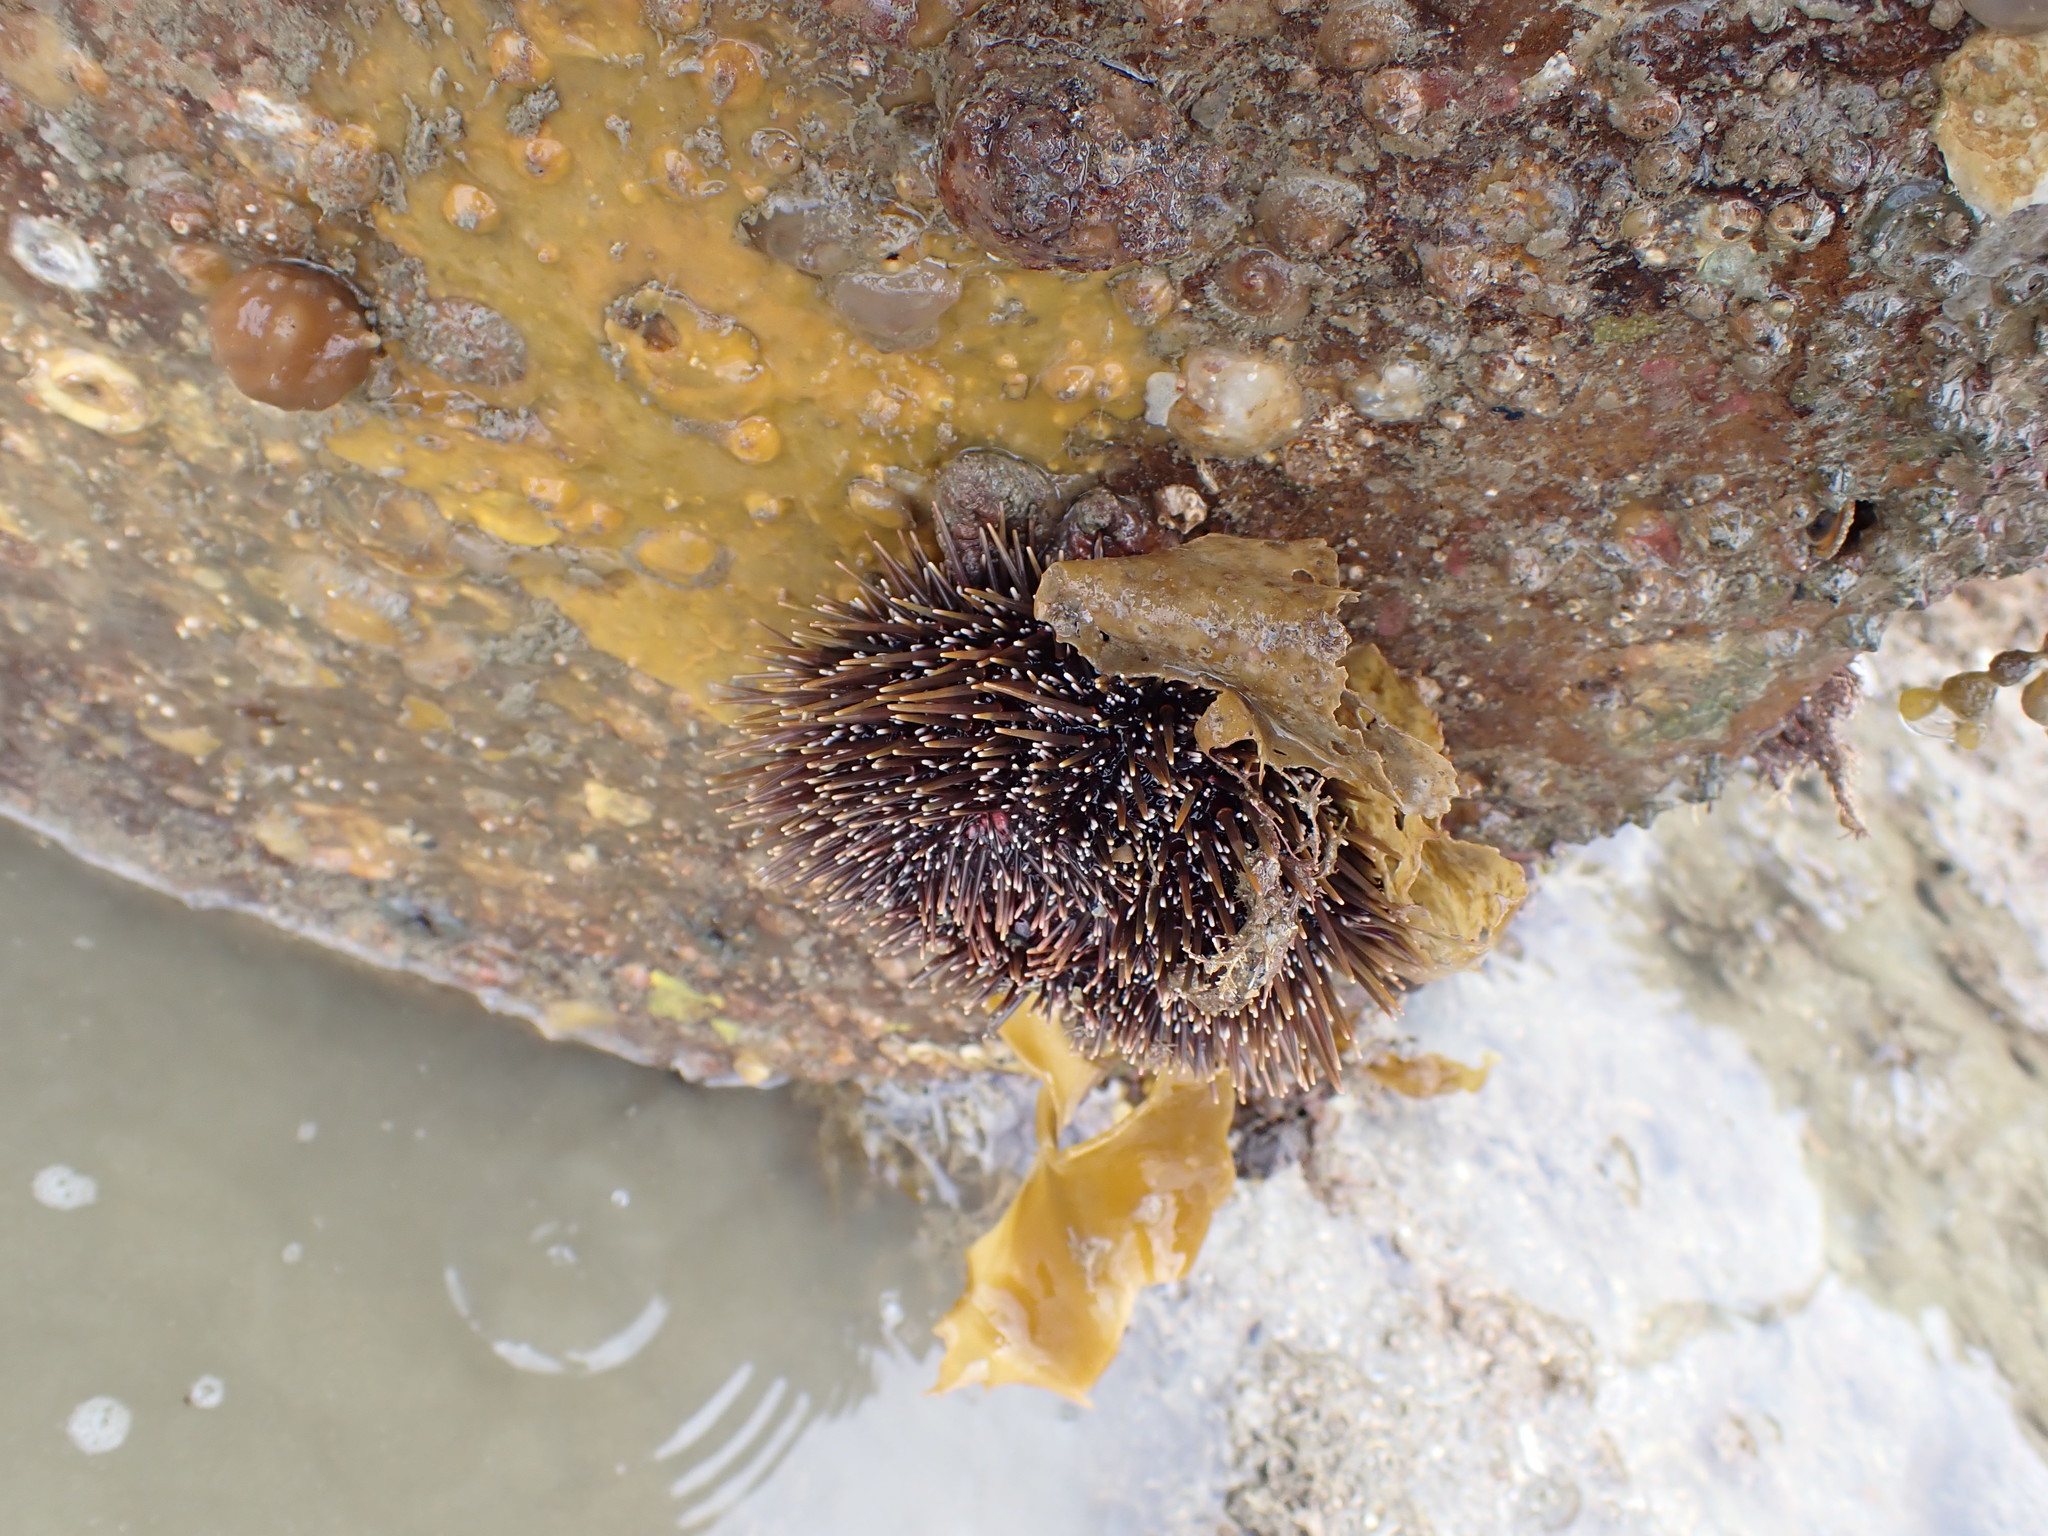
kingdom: Animalia
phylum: Echinodermata
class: Echinoidea
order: Camarodonta
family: Echinometridae
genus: Evechinus
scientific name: Evechinus chloroticus
